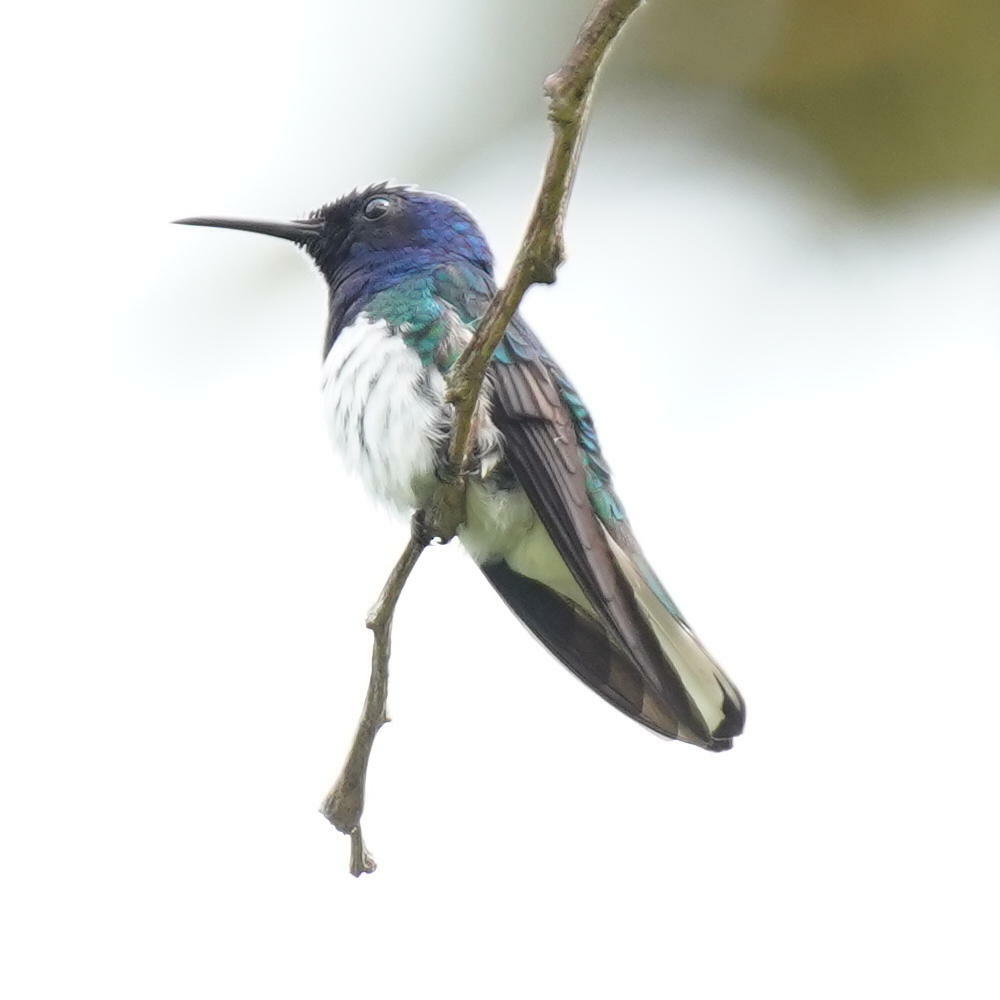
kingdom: Animalia
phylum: Chordata
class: Aves
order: Apodiformes
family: Trochilidae
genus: Florisuga
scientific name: Florisuga mellivora
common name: White-necked jacobin
